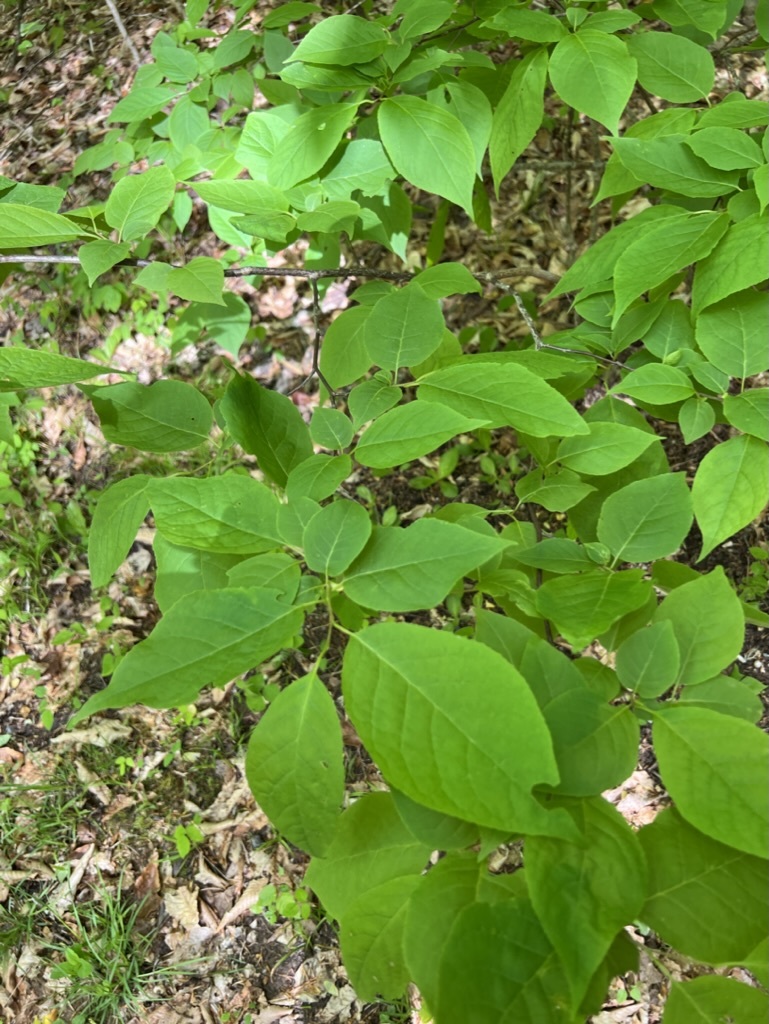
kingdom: Plantae
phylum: Tracheophyta
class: Magnoliopsida
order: Ericales
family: Styracaceae
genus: Halesia
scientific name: Halesia tetraptera
